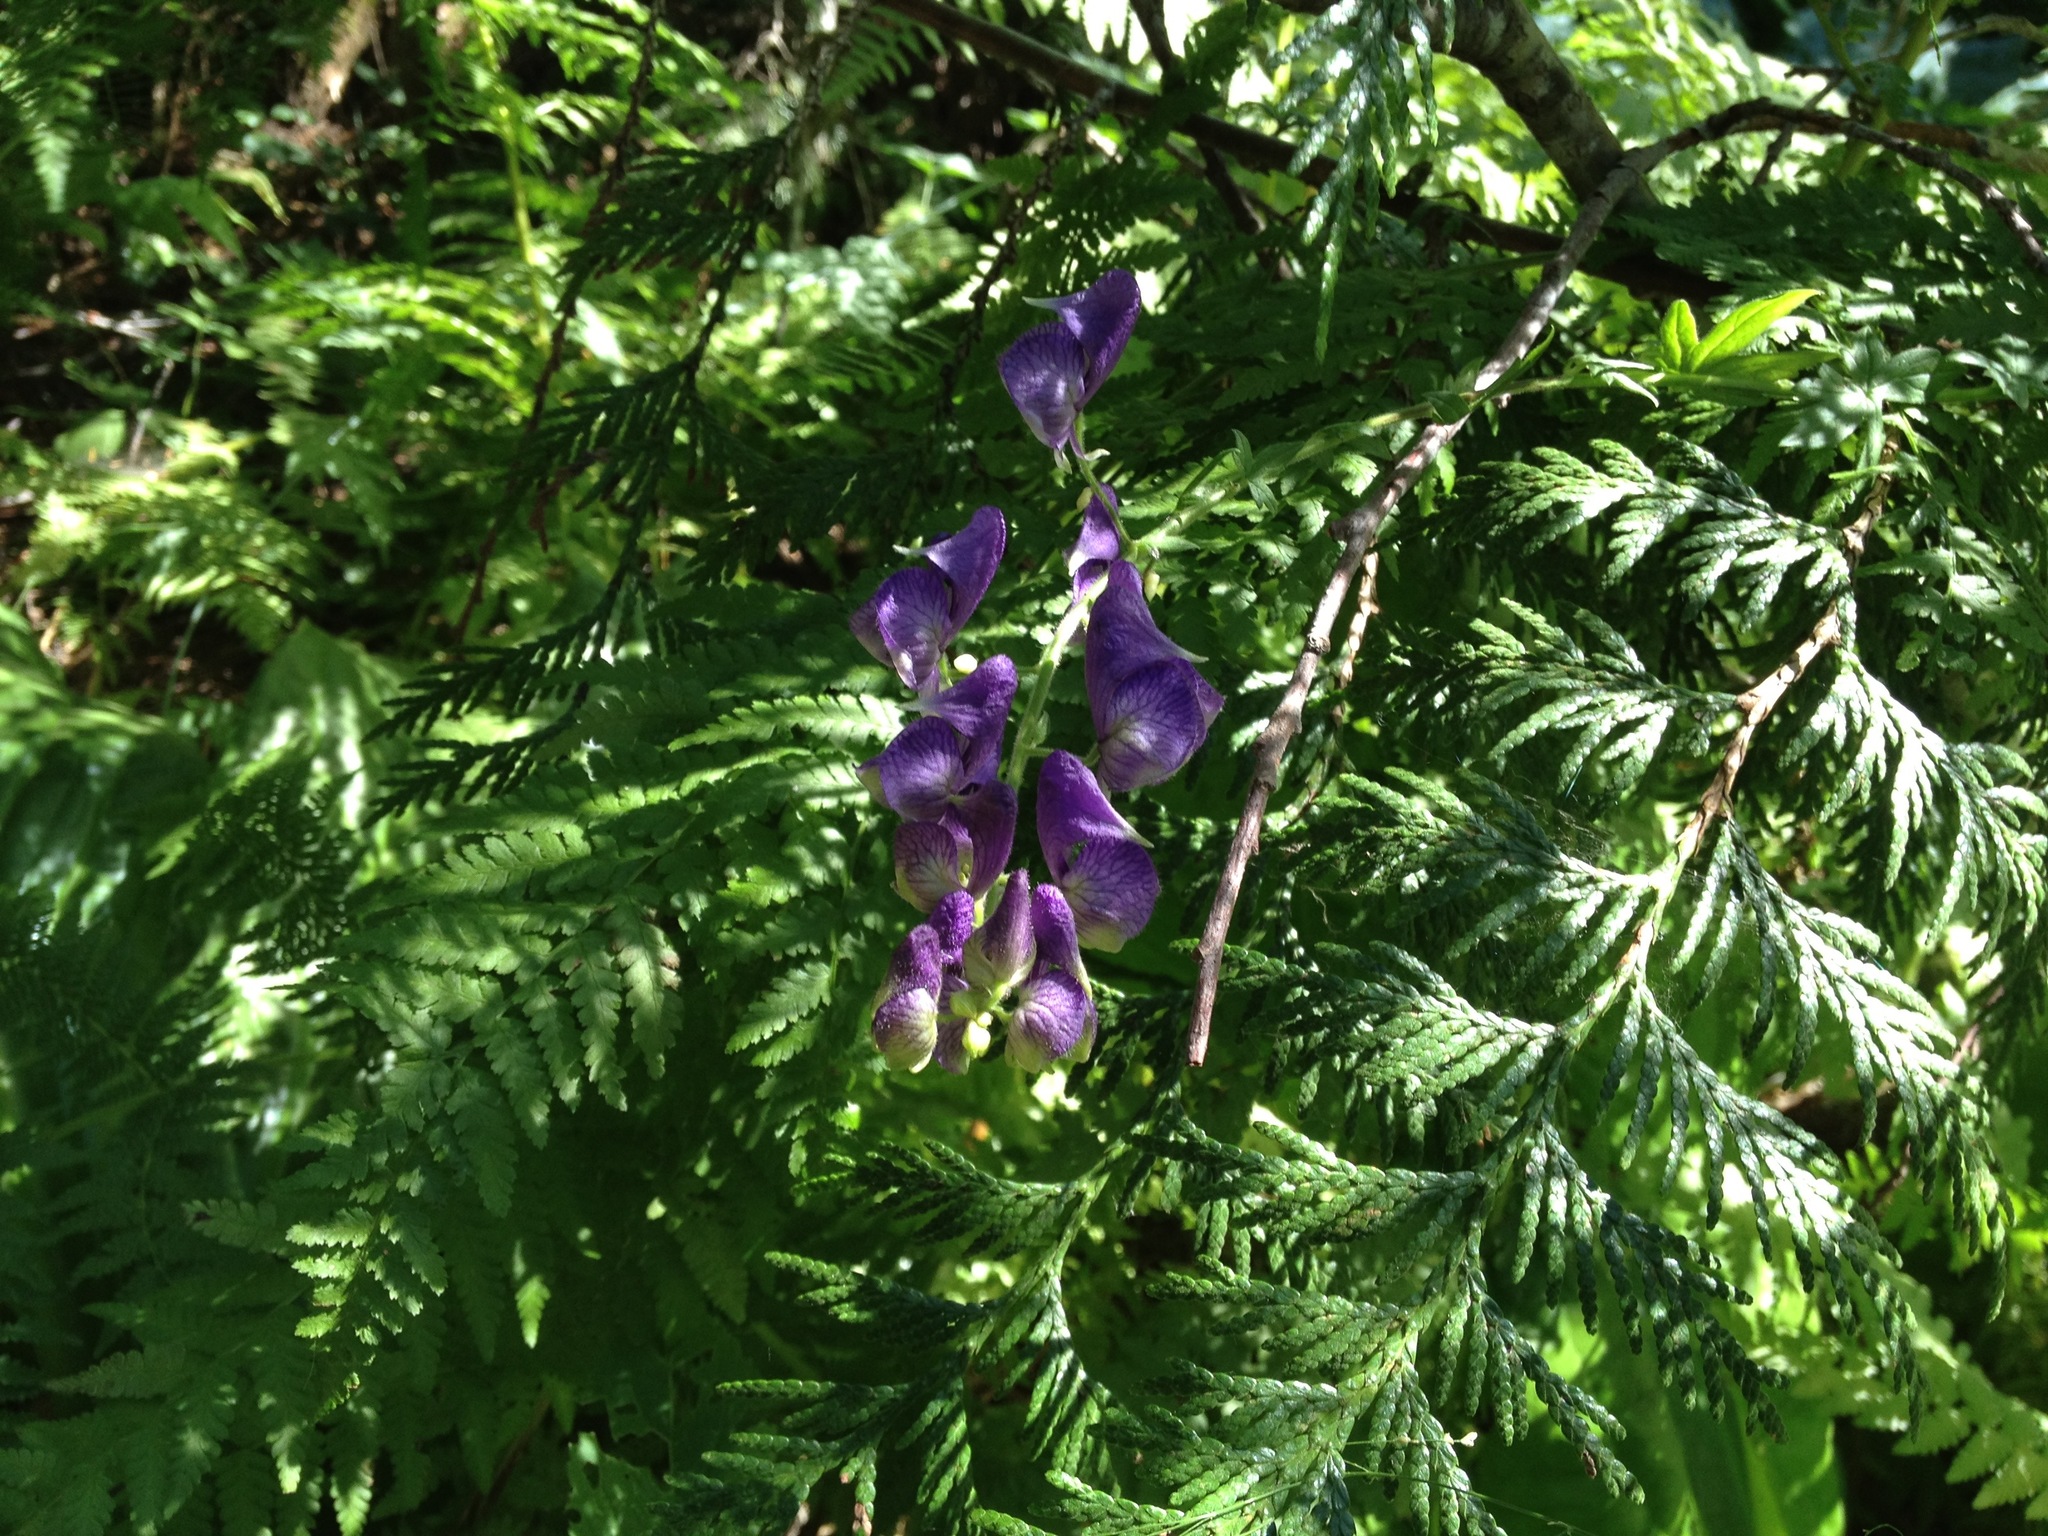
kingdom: Plantae
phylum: Tracheophyta
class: Magnoliopsida
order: Ranunculales
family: Ranunculaceae
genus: Aconitum
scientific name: Aconitum columbianum
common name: Columbia aconite
